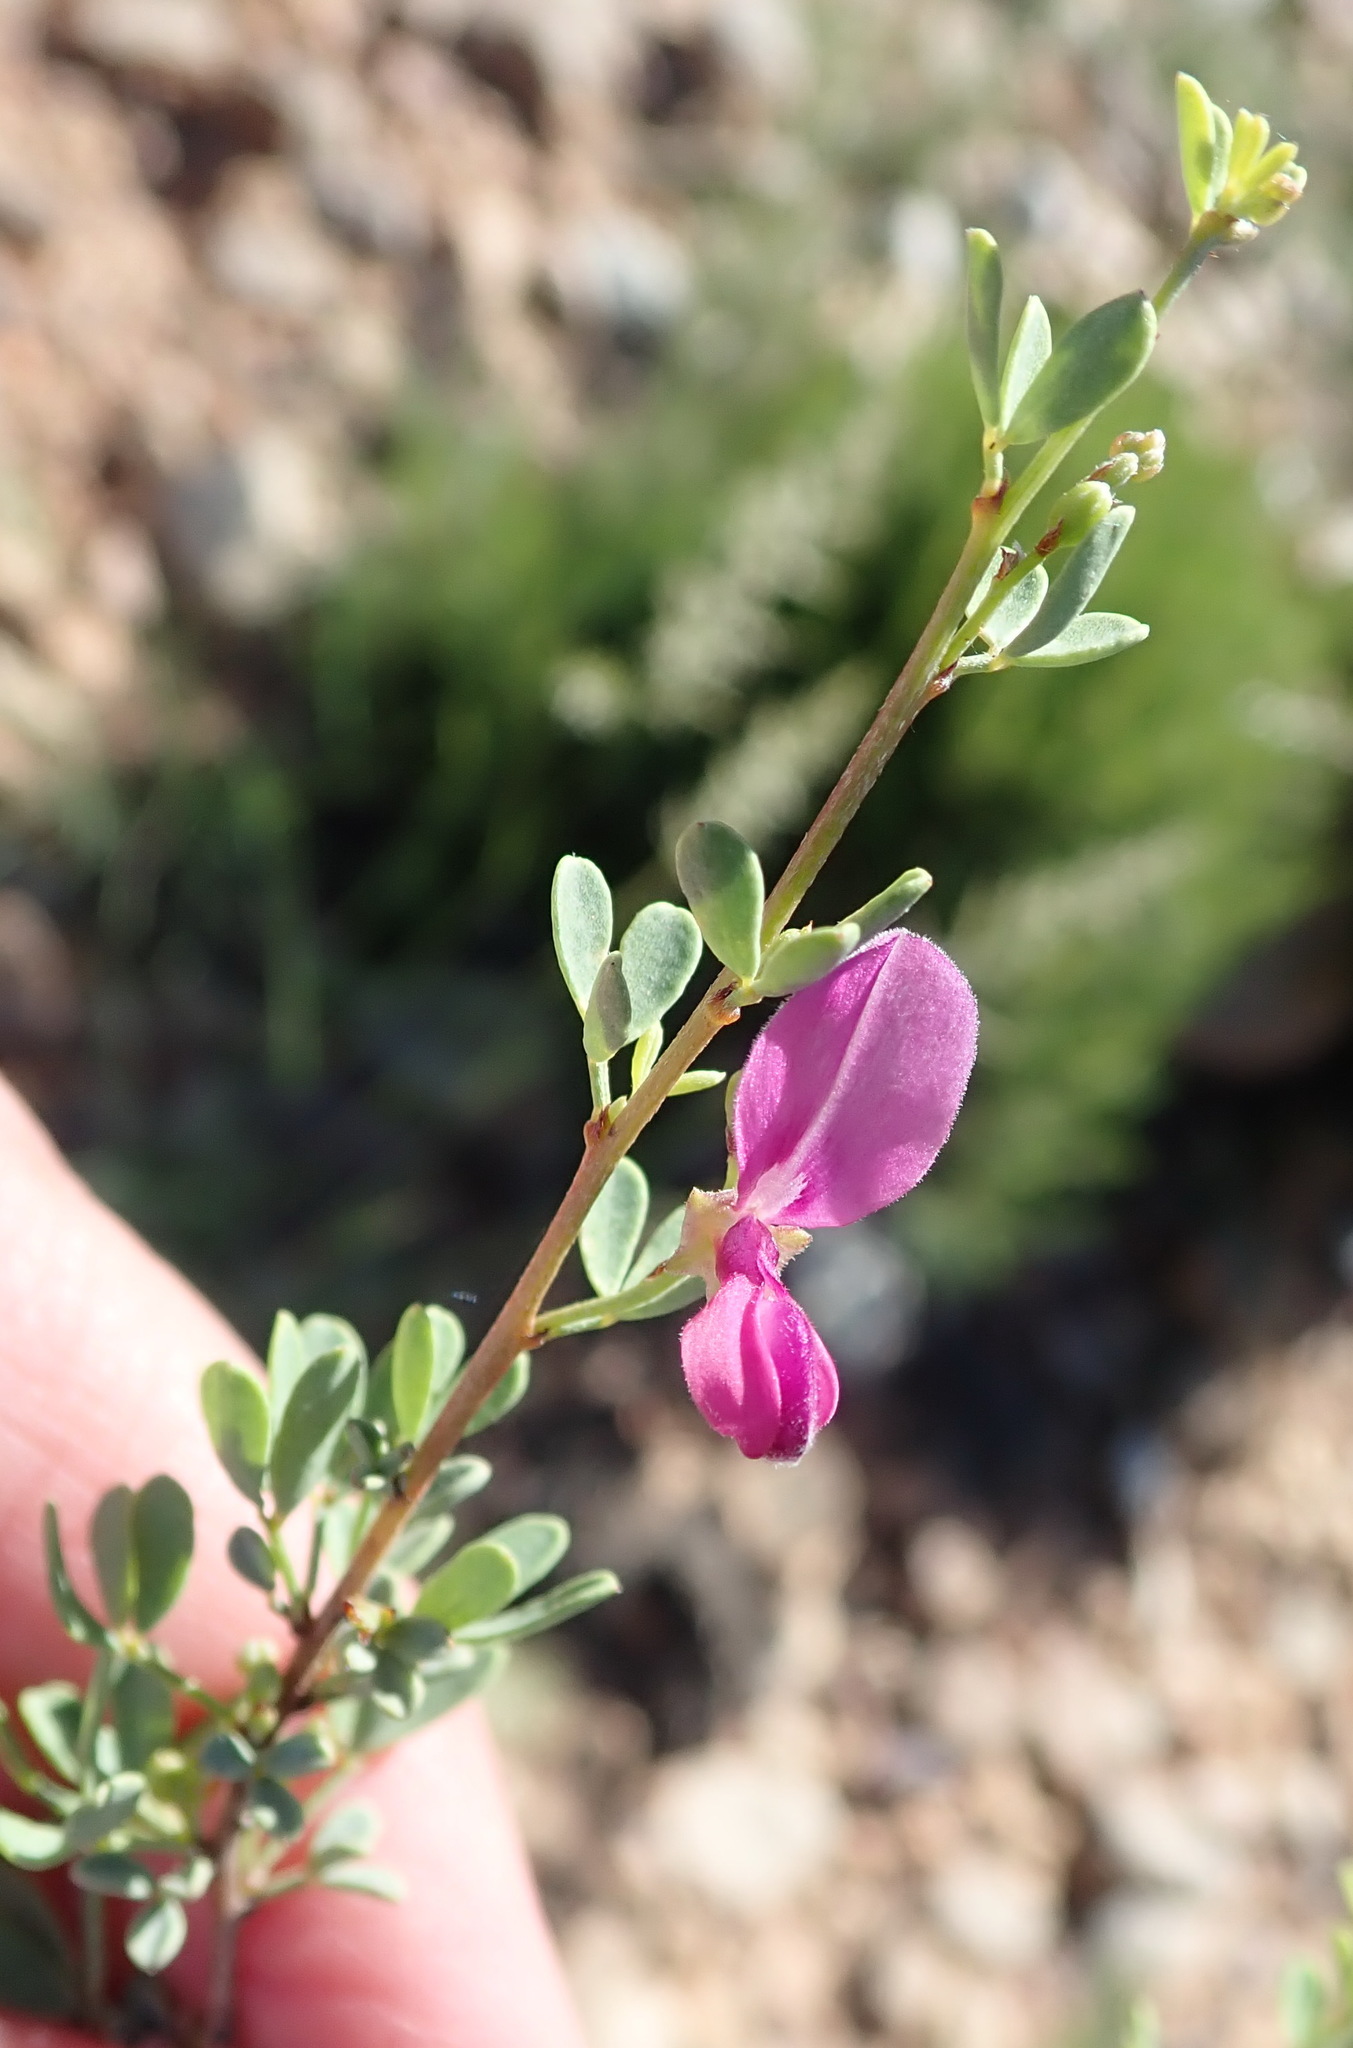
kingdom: Plantae
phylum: Tracheophyta
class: Magnoliopsida
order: Fabales
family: Fabaceae
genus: Indigofera
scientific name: Indigofera denudata
